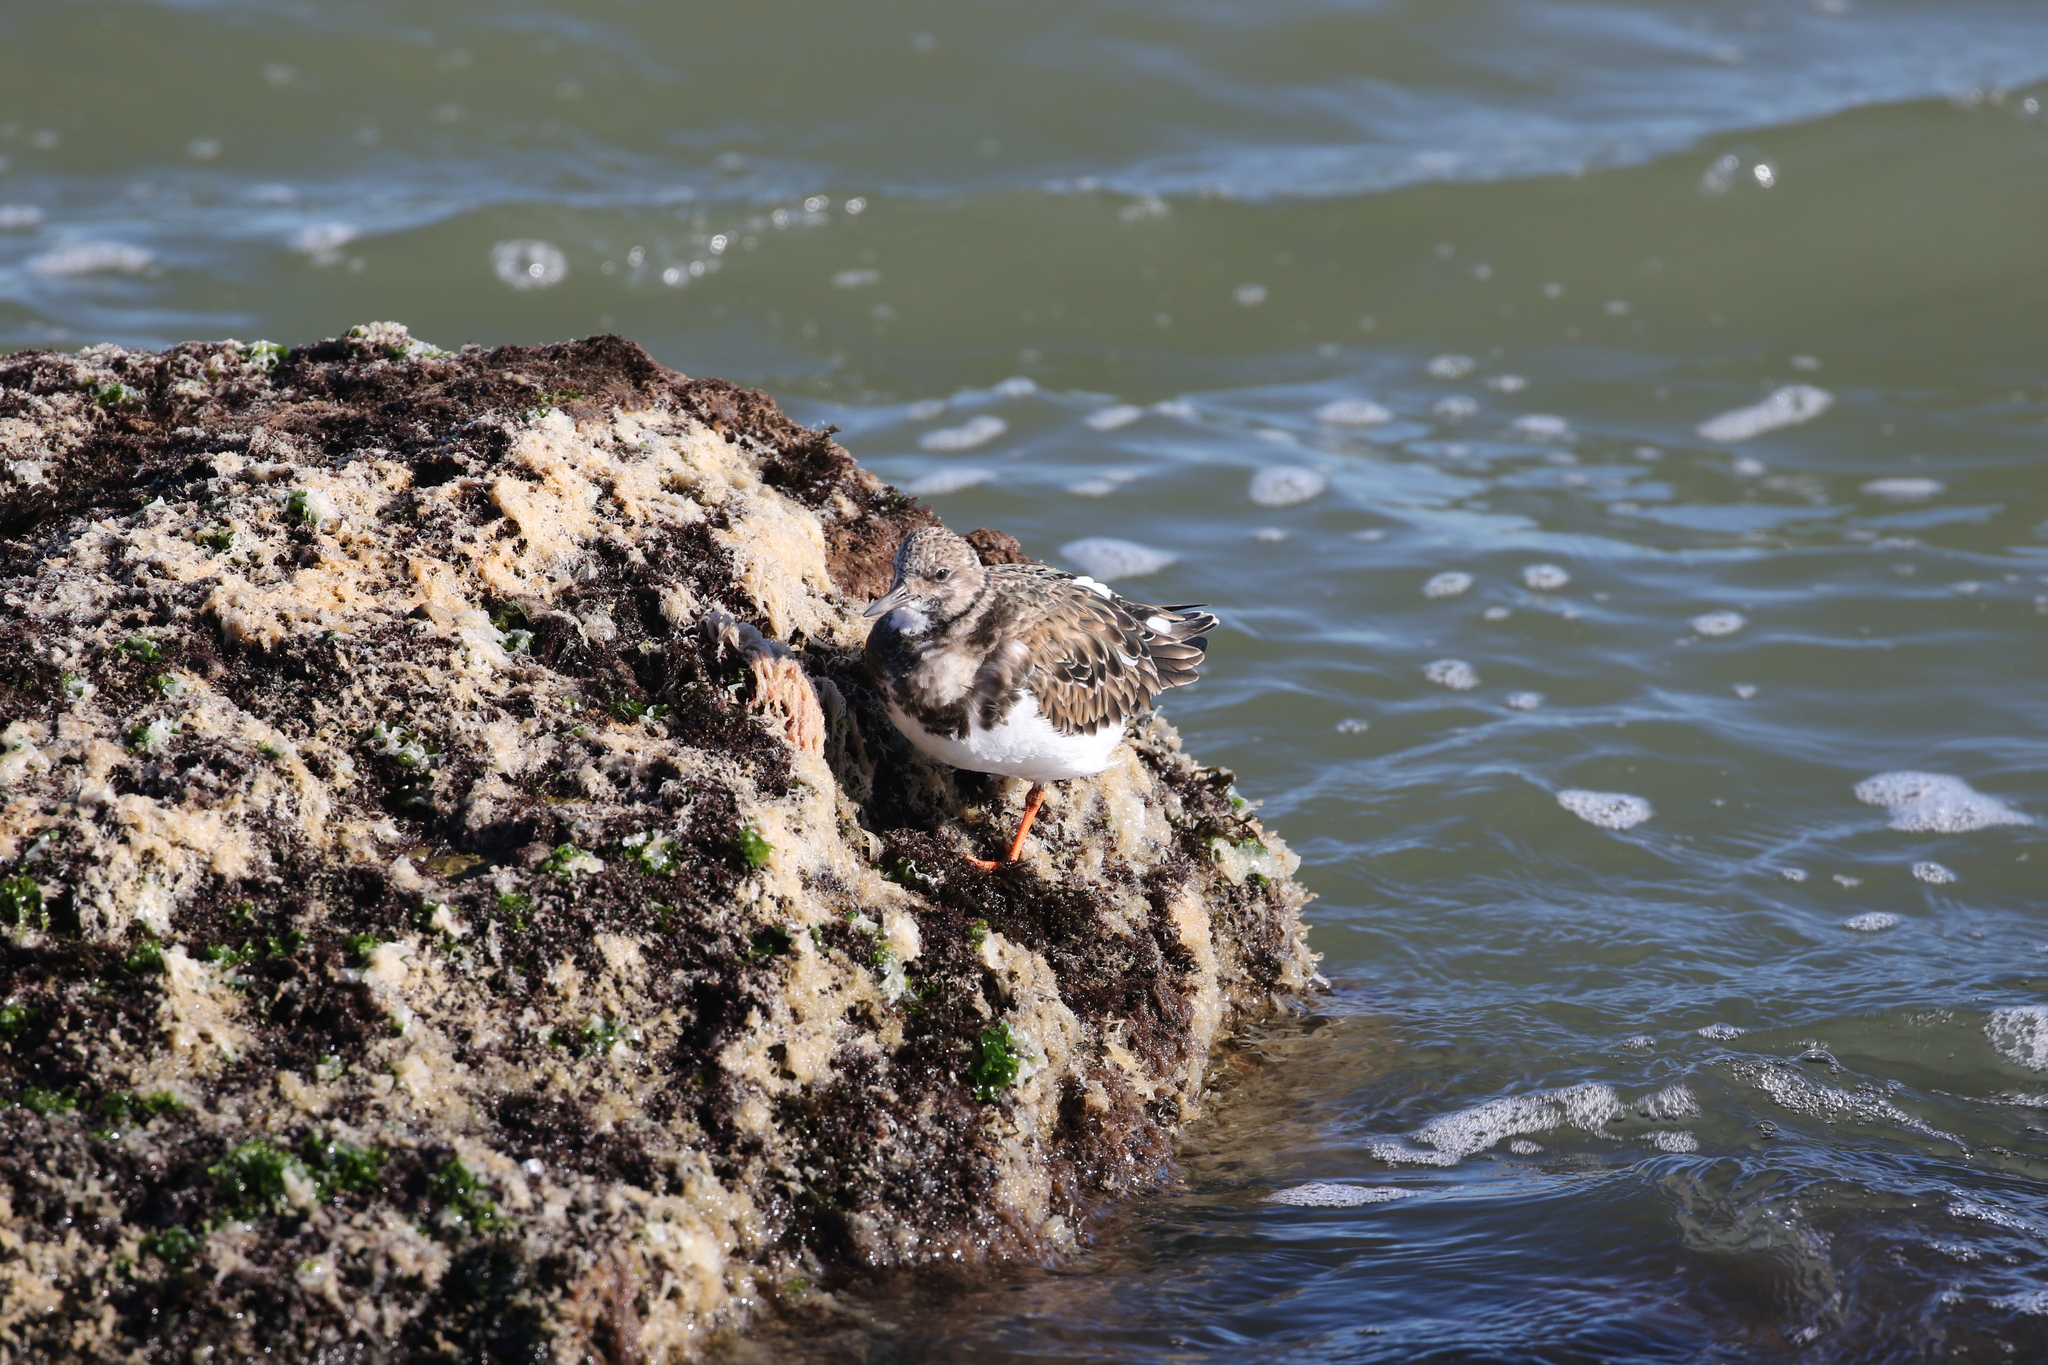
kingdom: Animalia
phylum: Chordata
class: Aves
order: Charadriiformes
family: Scolopacidae
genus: Arenaria
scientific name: Arenaria interpres
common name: Ruddy turnstone
